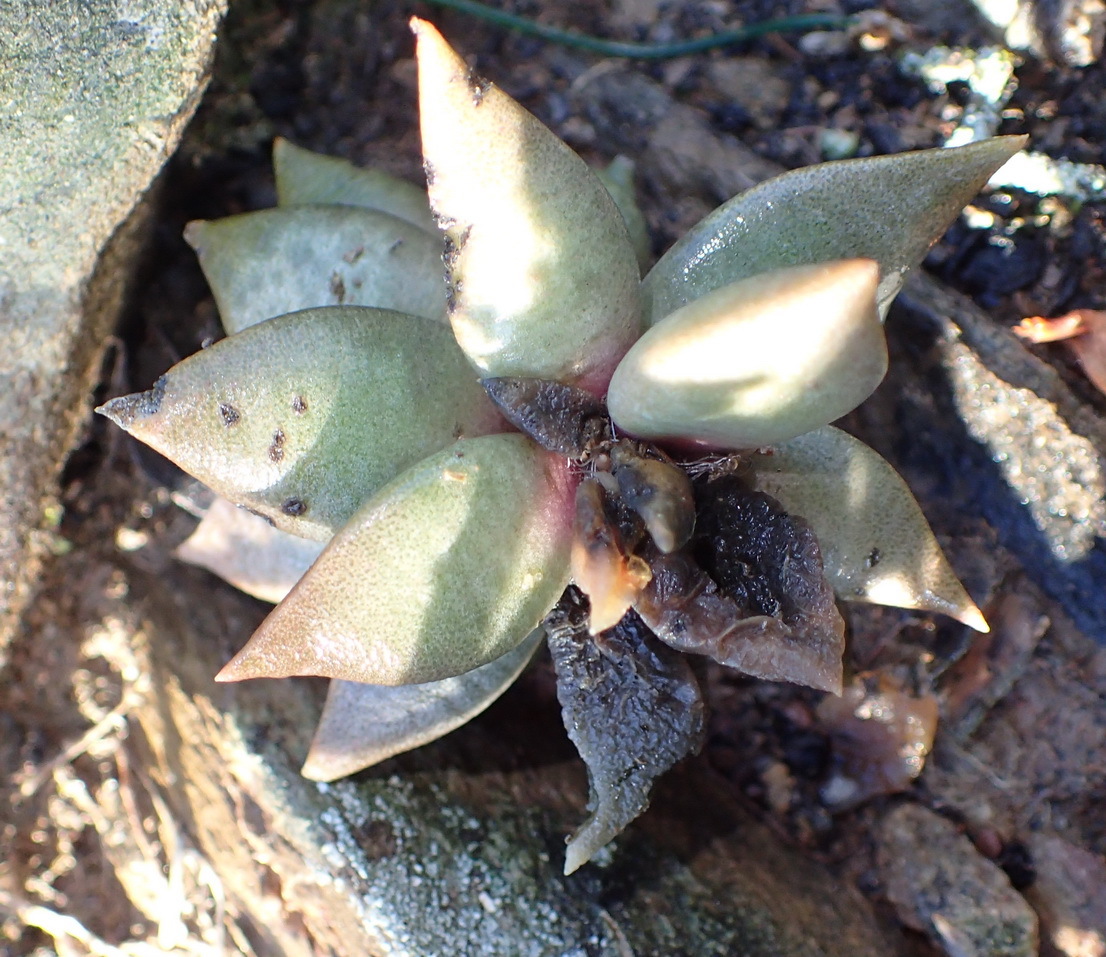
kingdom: Plantae
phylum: Tracheophyta
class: Magnoliopsida
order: Caryophyllales
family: Anacampserotaceae
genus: Anacampseros
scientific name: Anacampseros telephiastrum
